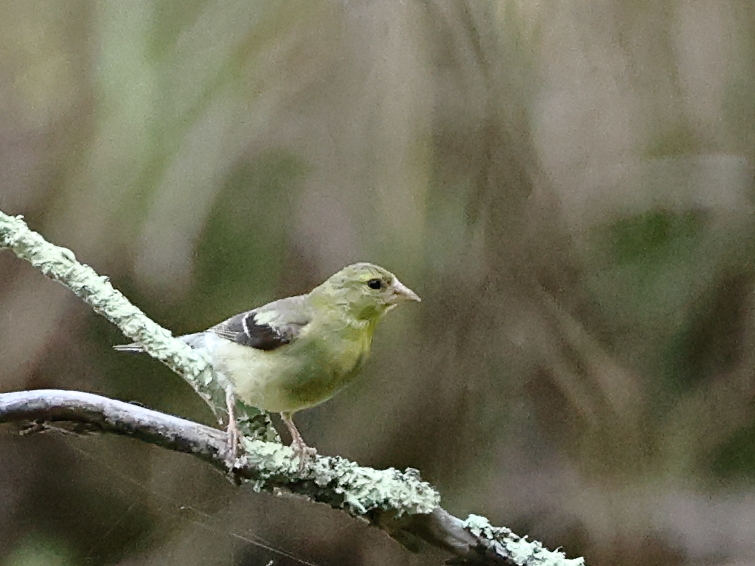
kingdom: Animalia
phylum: Chordata
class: Aves
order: Passeriformes
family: Fringillidae
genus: Spinus
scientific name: Spinus tristis
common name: American goldfinch
